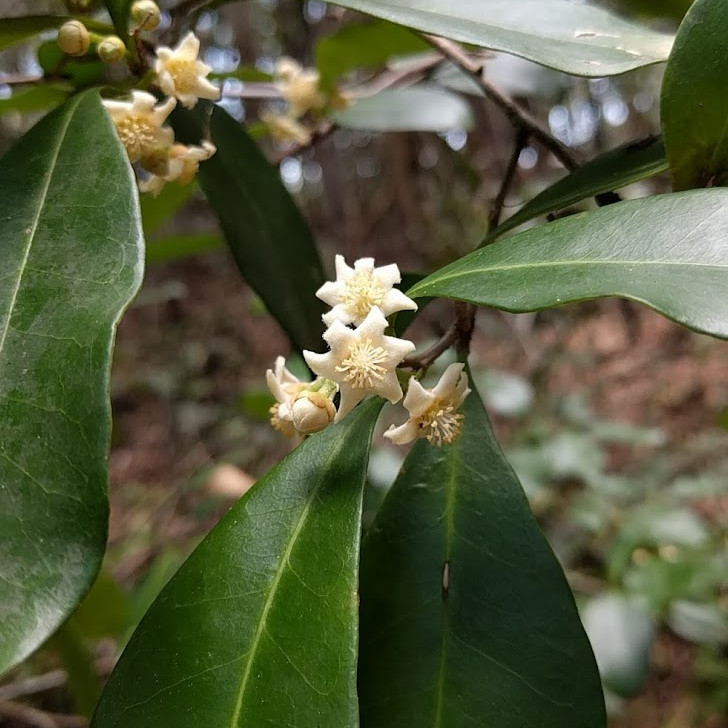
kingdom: Plantae
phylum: Tracheophyta
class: Magnoliopsida
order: Malpighiales
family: Euphorbiaceae
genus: Fontainea
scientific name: Fontainea rostrata
